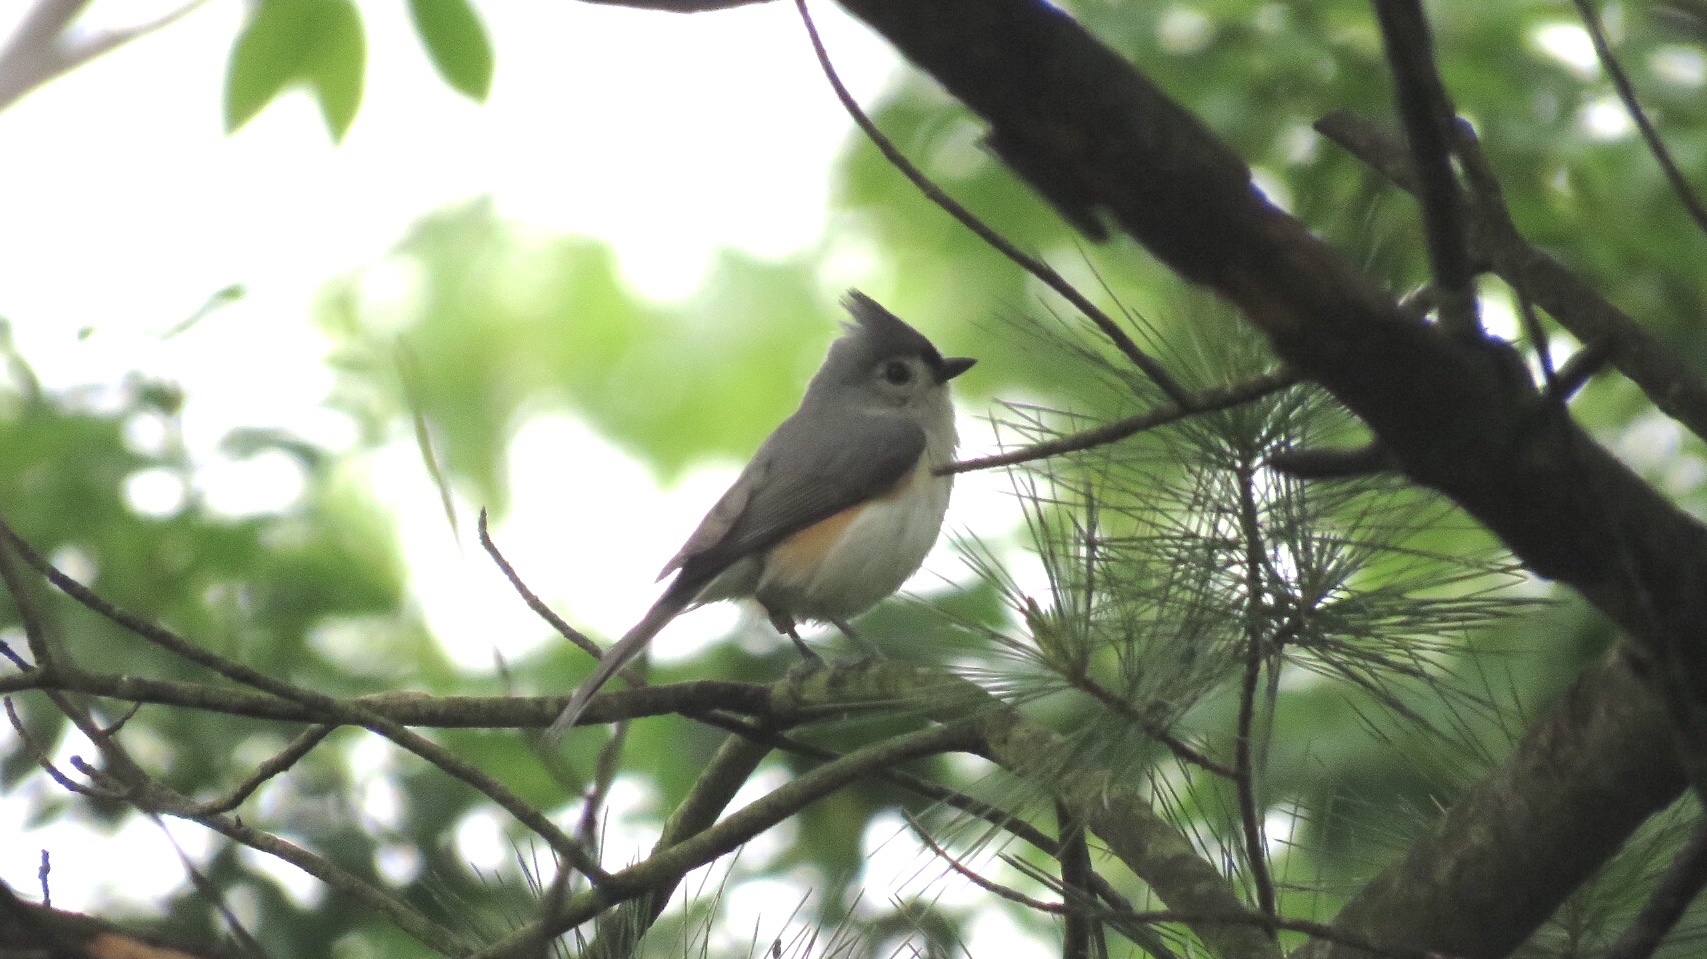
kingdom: Animalia
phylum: Chordata
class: Aves
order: Passeriformes
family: Paridae
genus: Baeolophus
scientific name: Baeolophus bicolor
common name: Tufted titmouse
